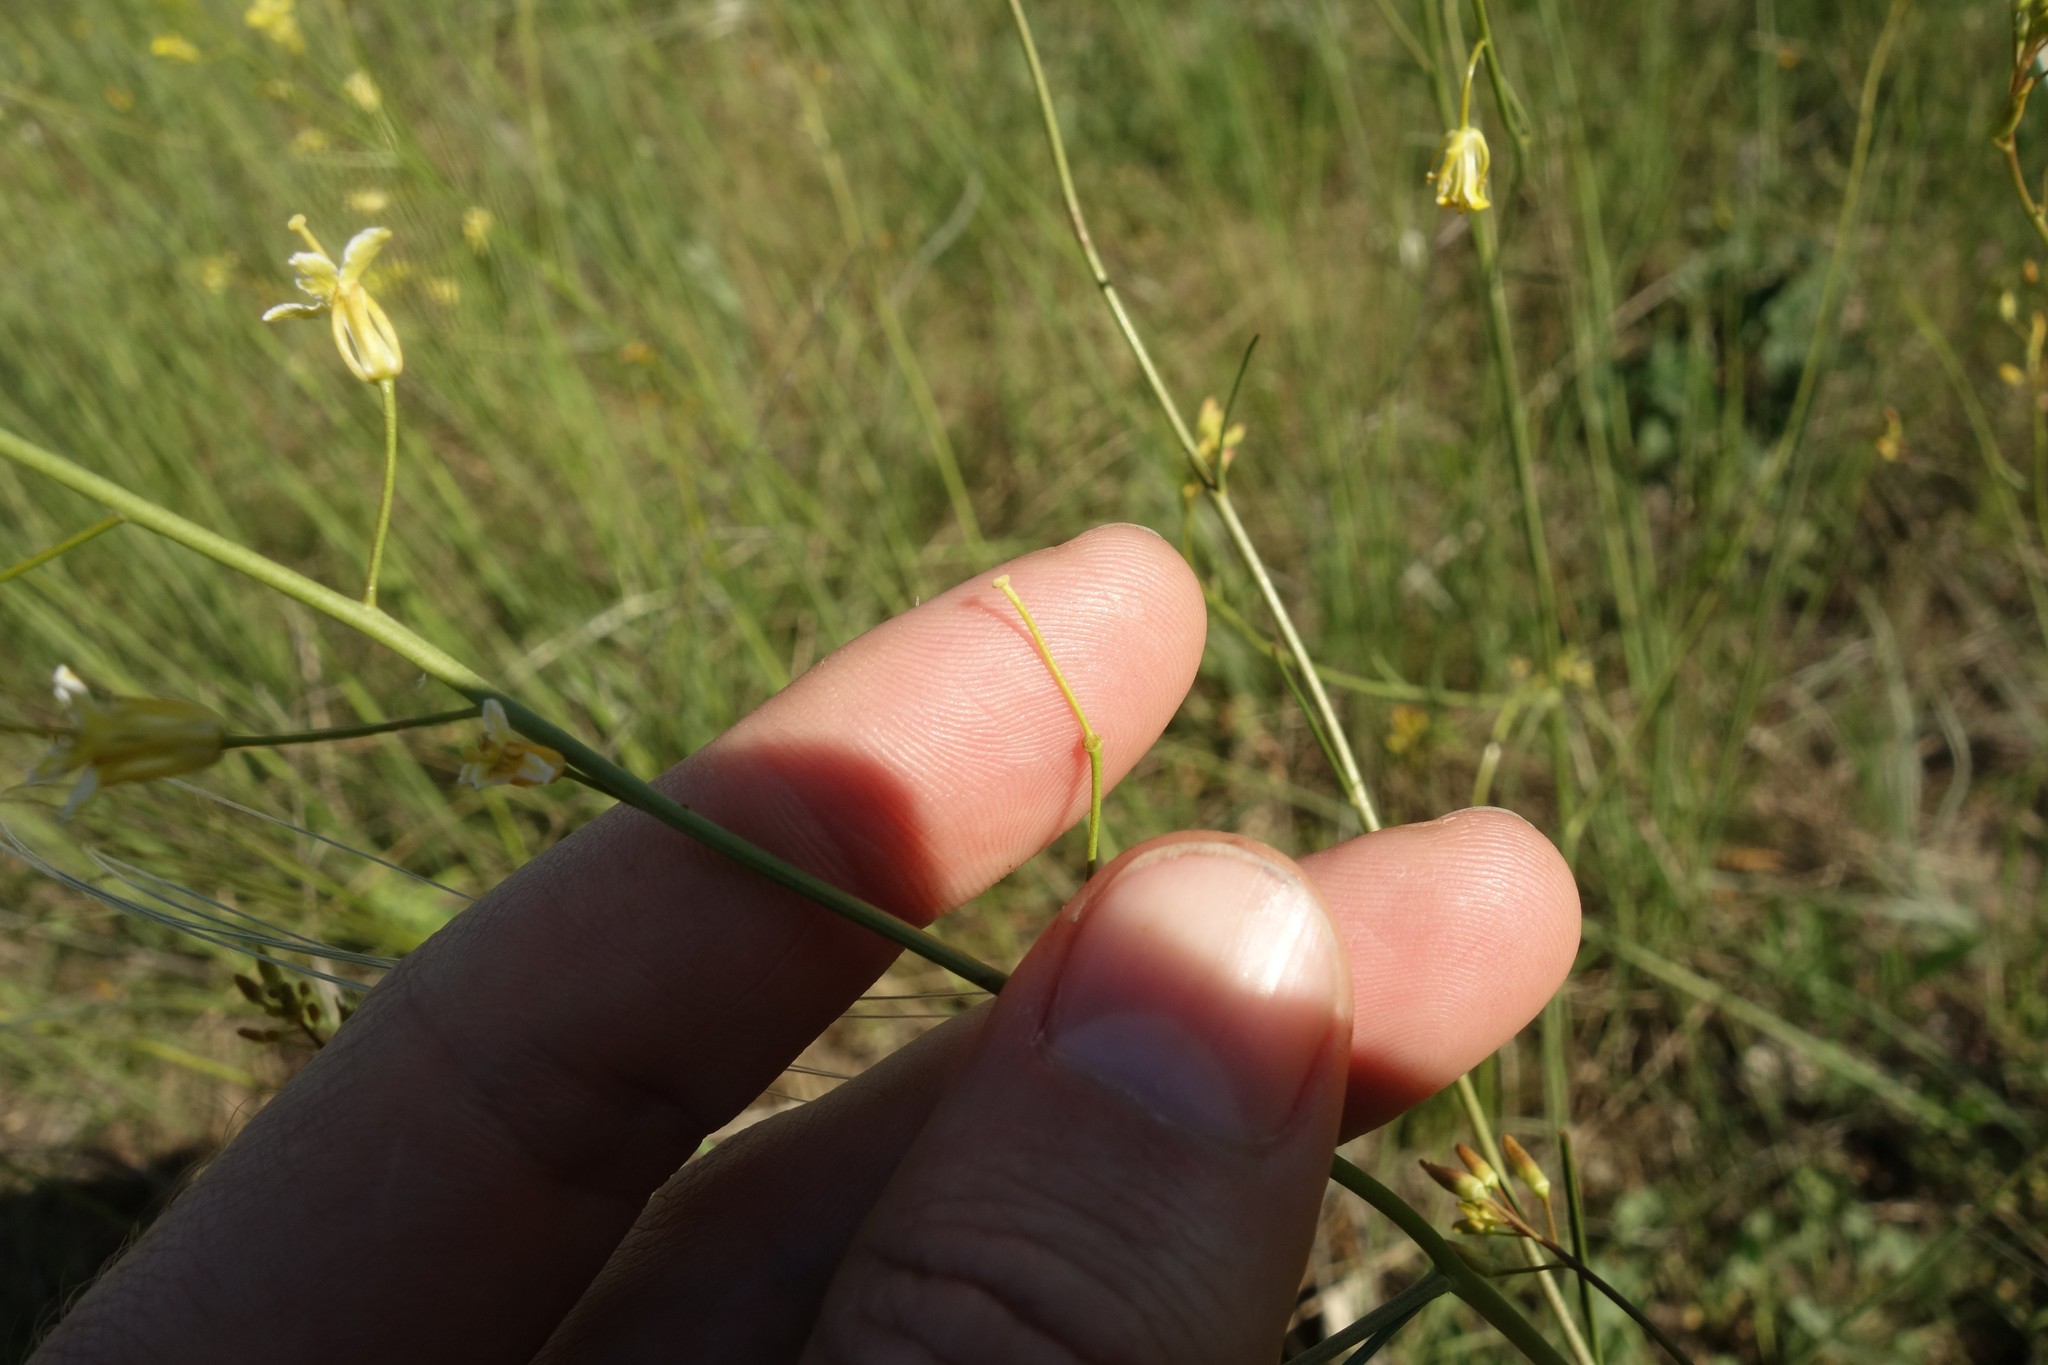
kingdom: Plantae
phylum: Tracheophyta
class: Magnoliopsida
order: Brassicales
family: Brassicaceae
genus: Sisymbrium
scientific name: Sisymbrium polymorphum
